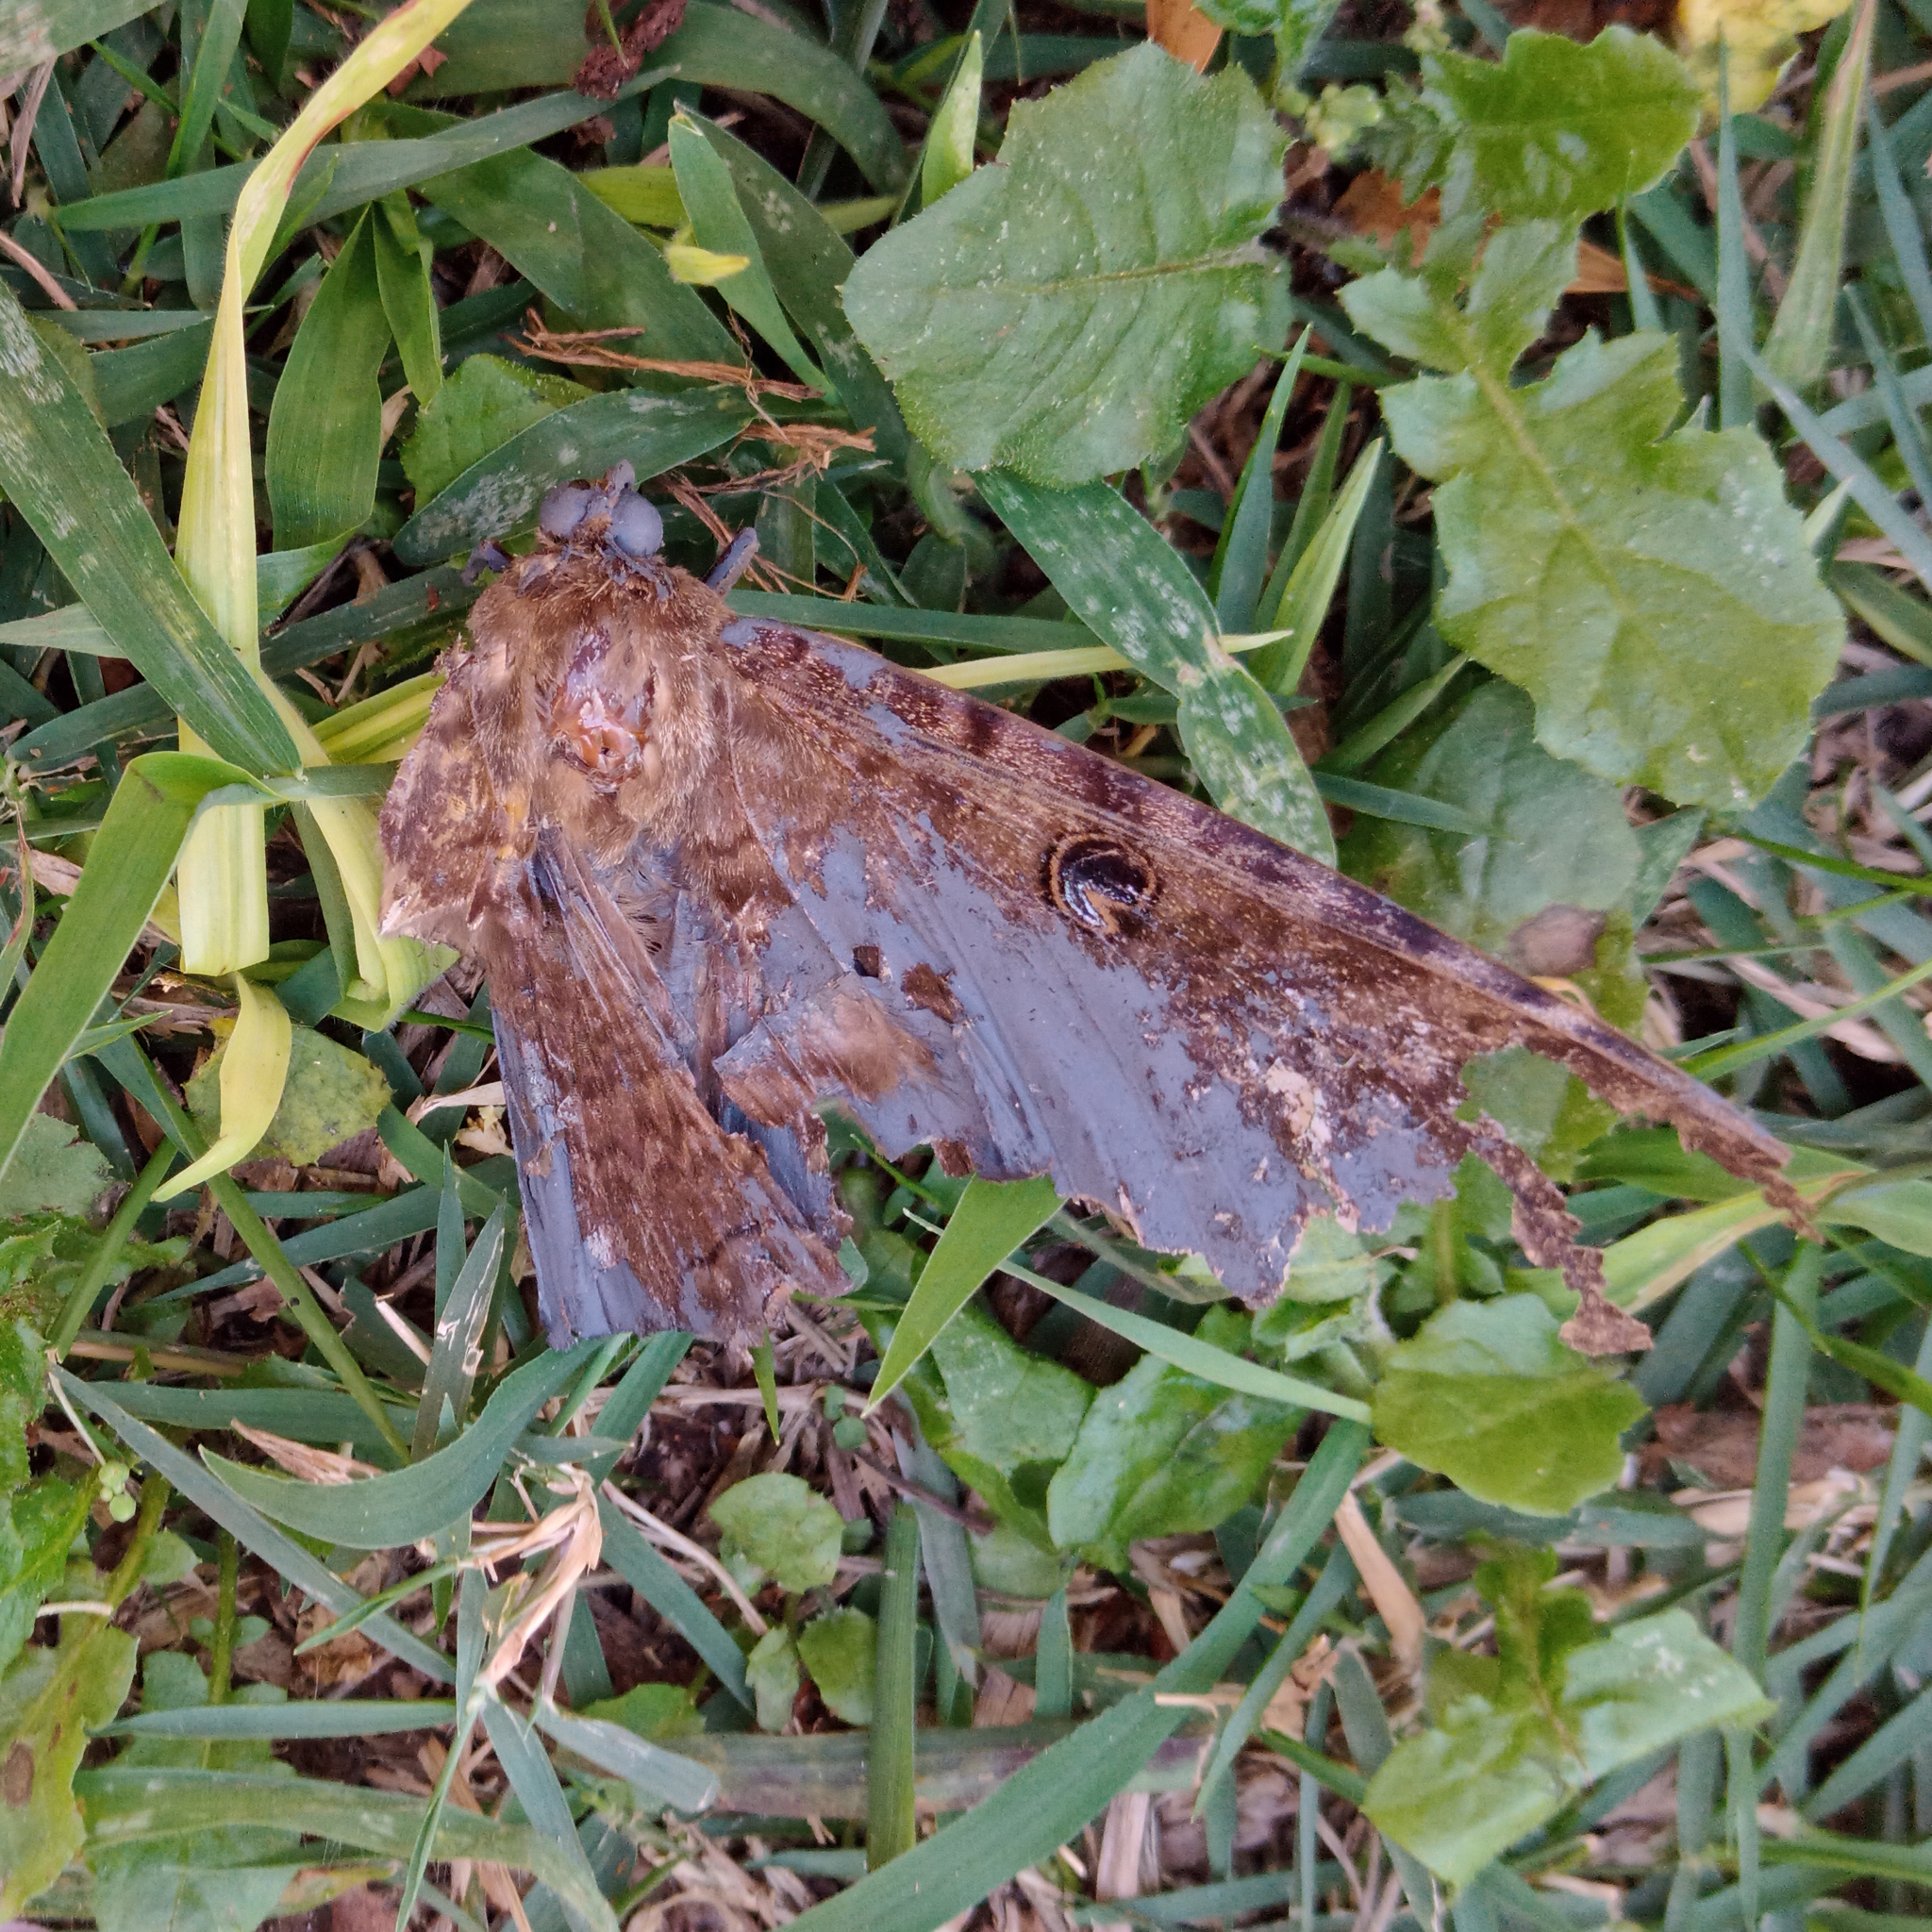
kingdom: Animalia
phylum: Arthropoda
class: Insecta
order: Lepidoptera
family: Erebidae
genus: Ascalapha
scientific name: Ascalapha odorata
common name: Black witch
